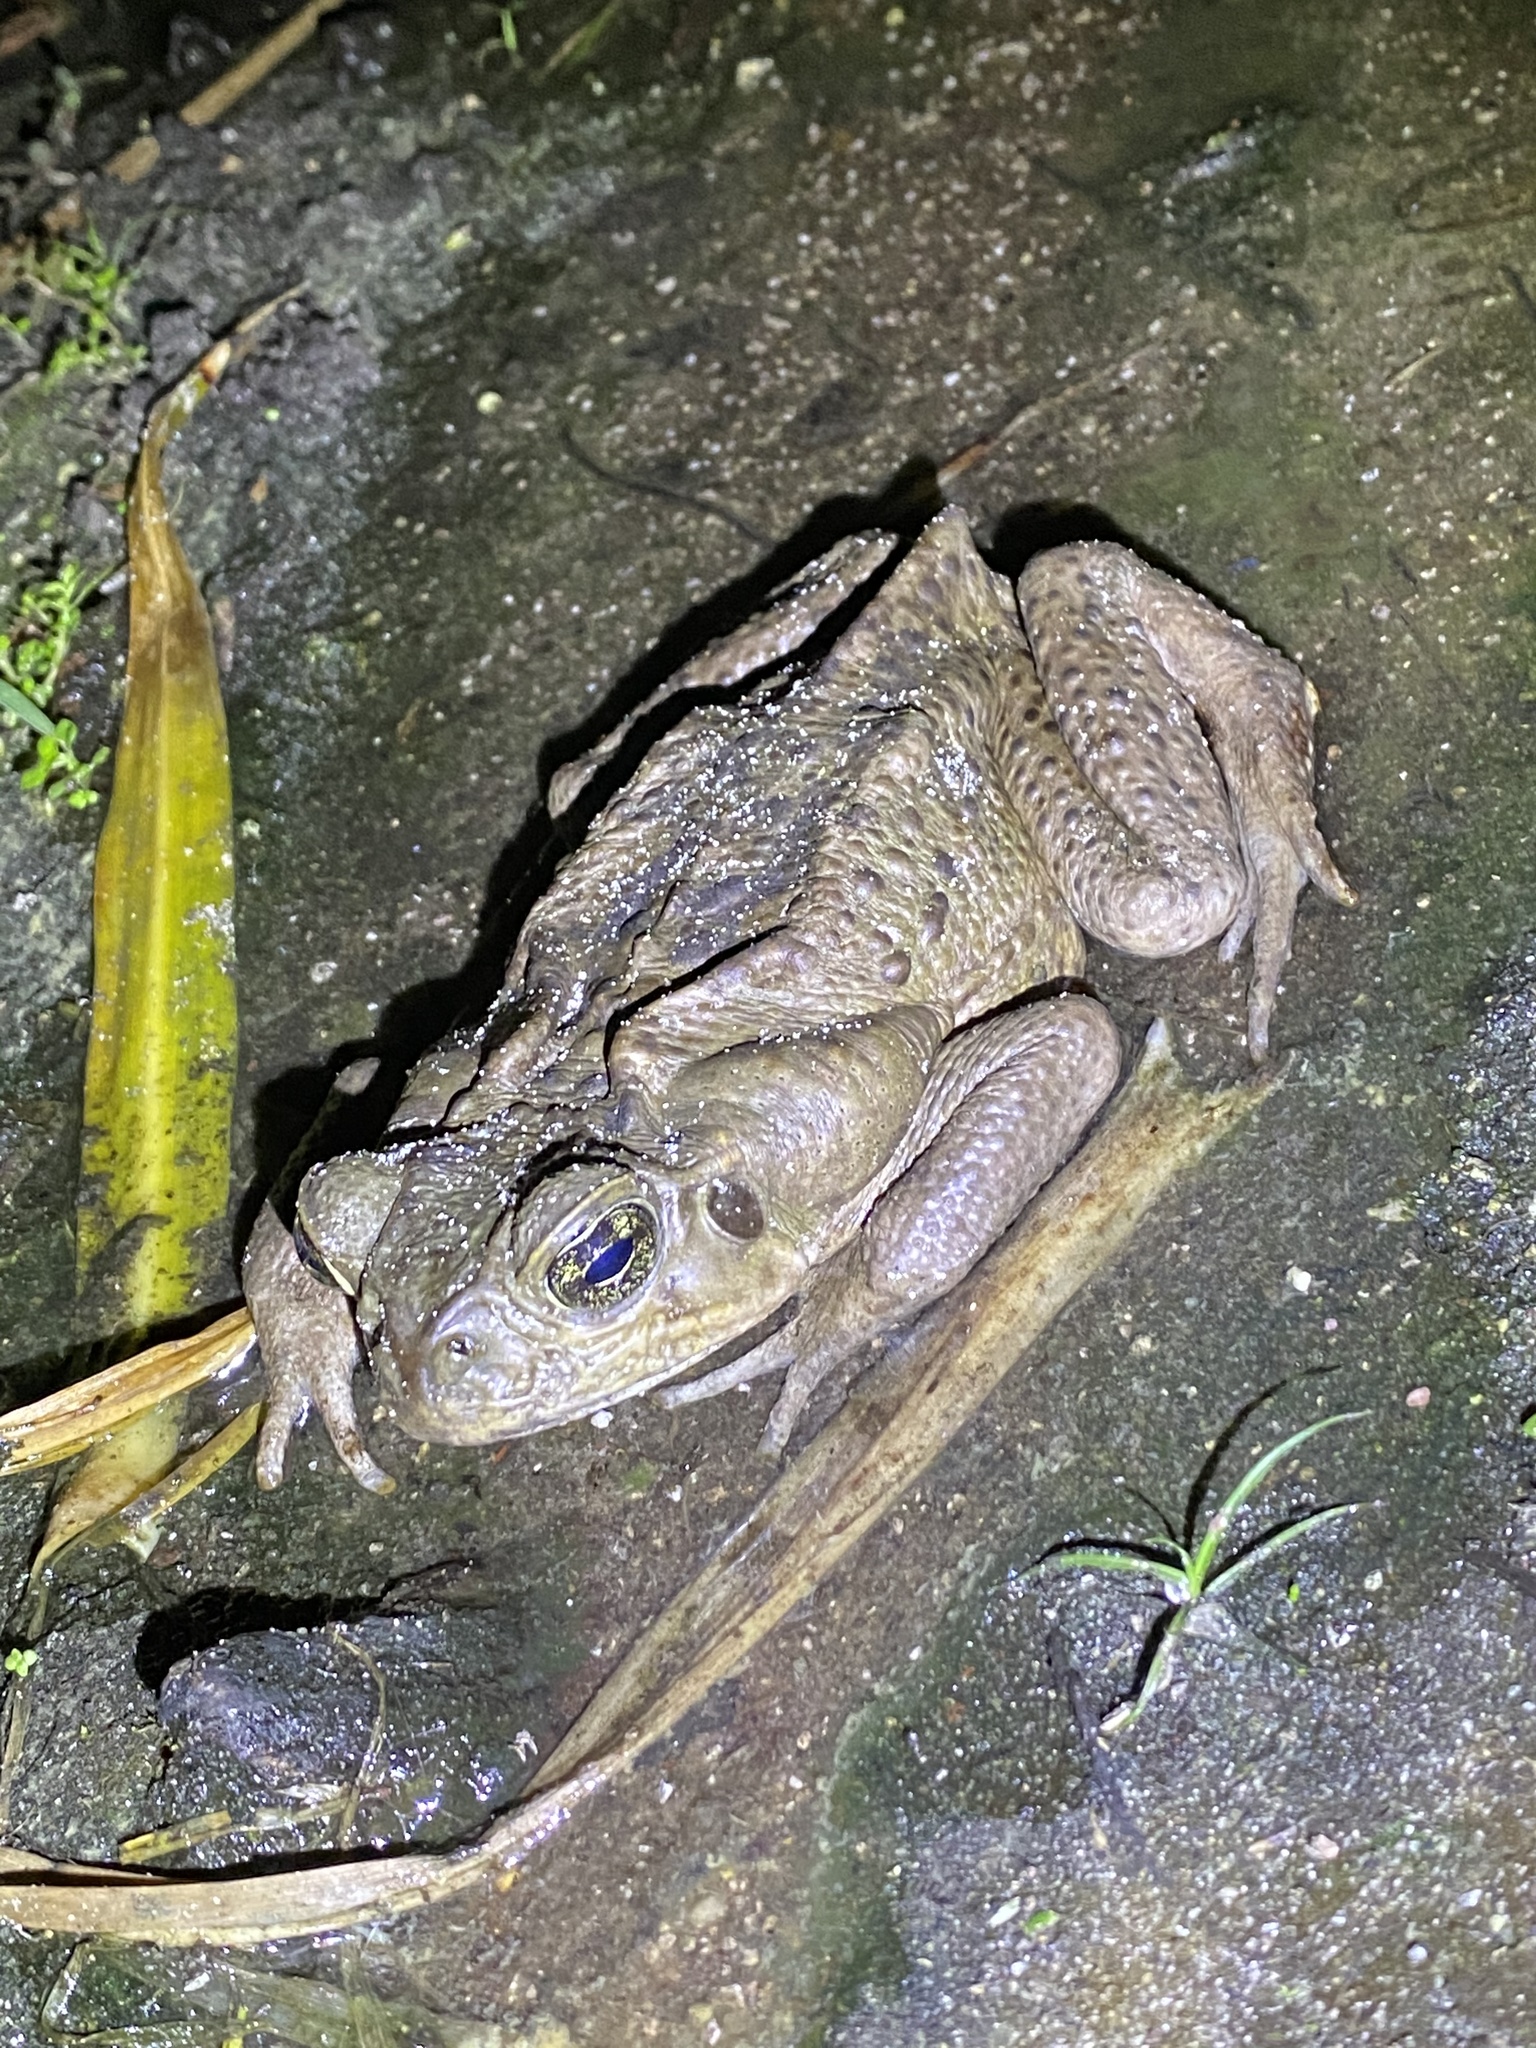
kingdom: Animalia
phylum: Chordata
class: Amphibia
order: Anura
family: Bufonidae
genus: Rhinella
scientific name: Rhinella marina
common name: Cane toad
